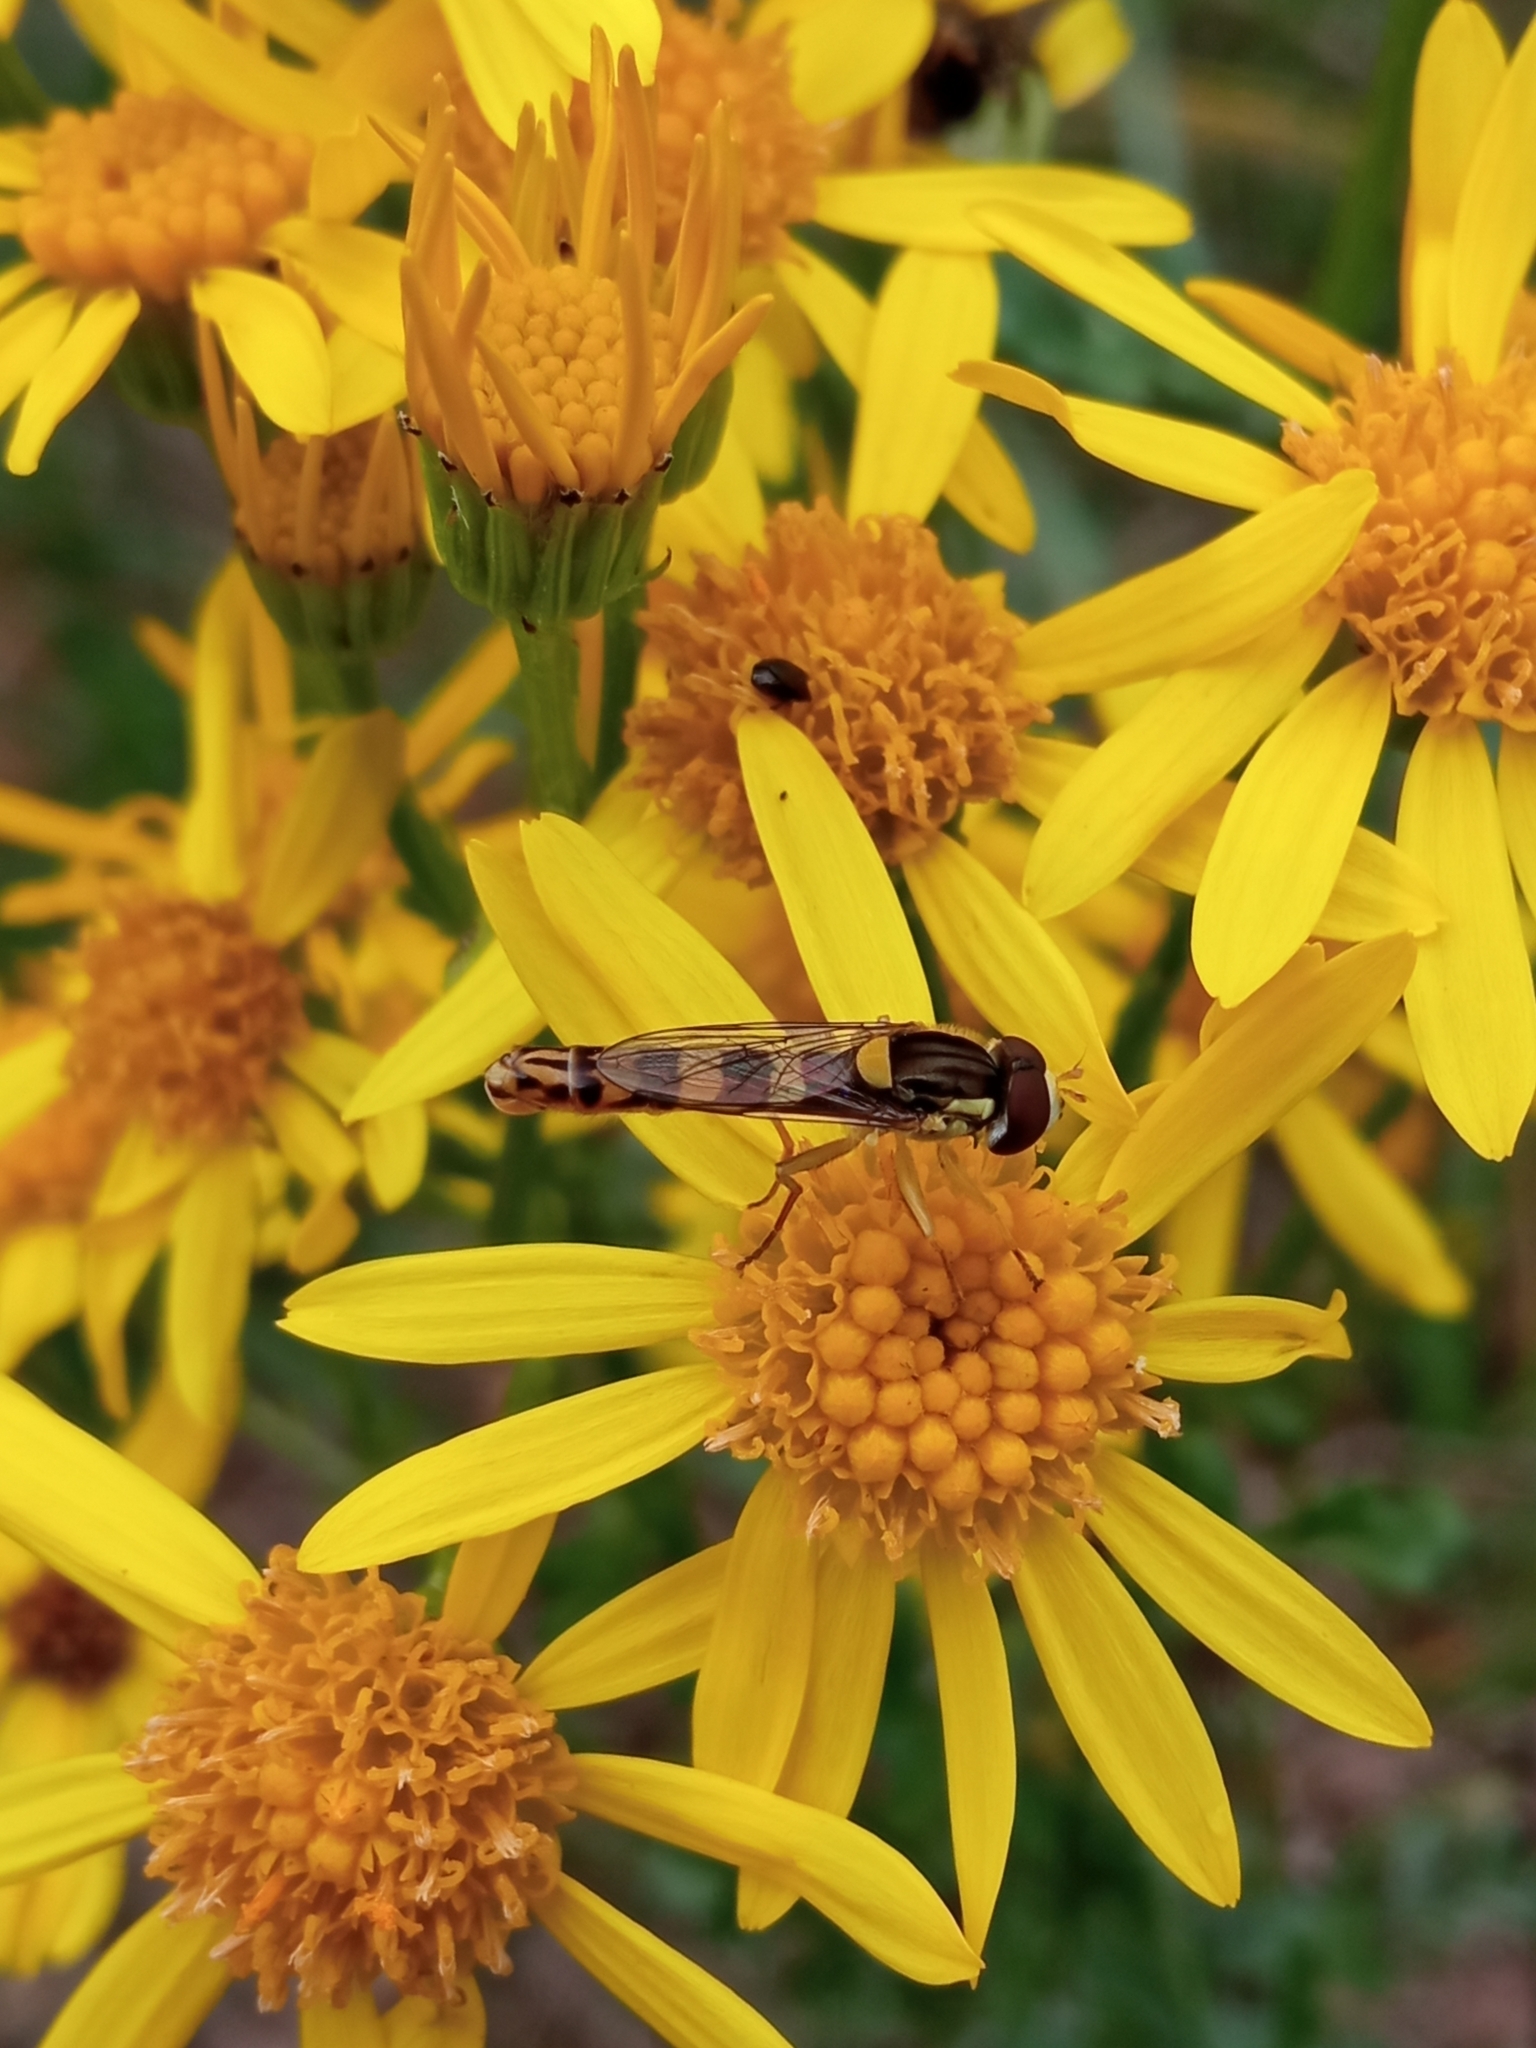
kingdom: Animalia
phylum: Arthropoda
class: Insecta
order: Diptera
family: Syrphidae
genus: Sphaerophoria
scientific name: Sphaerophoria scripta
